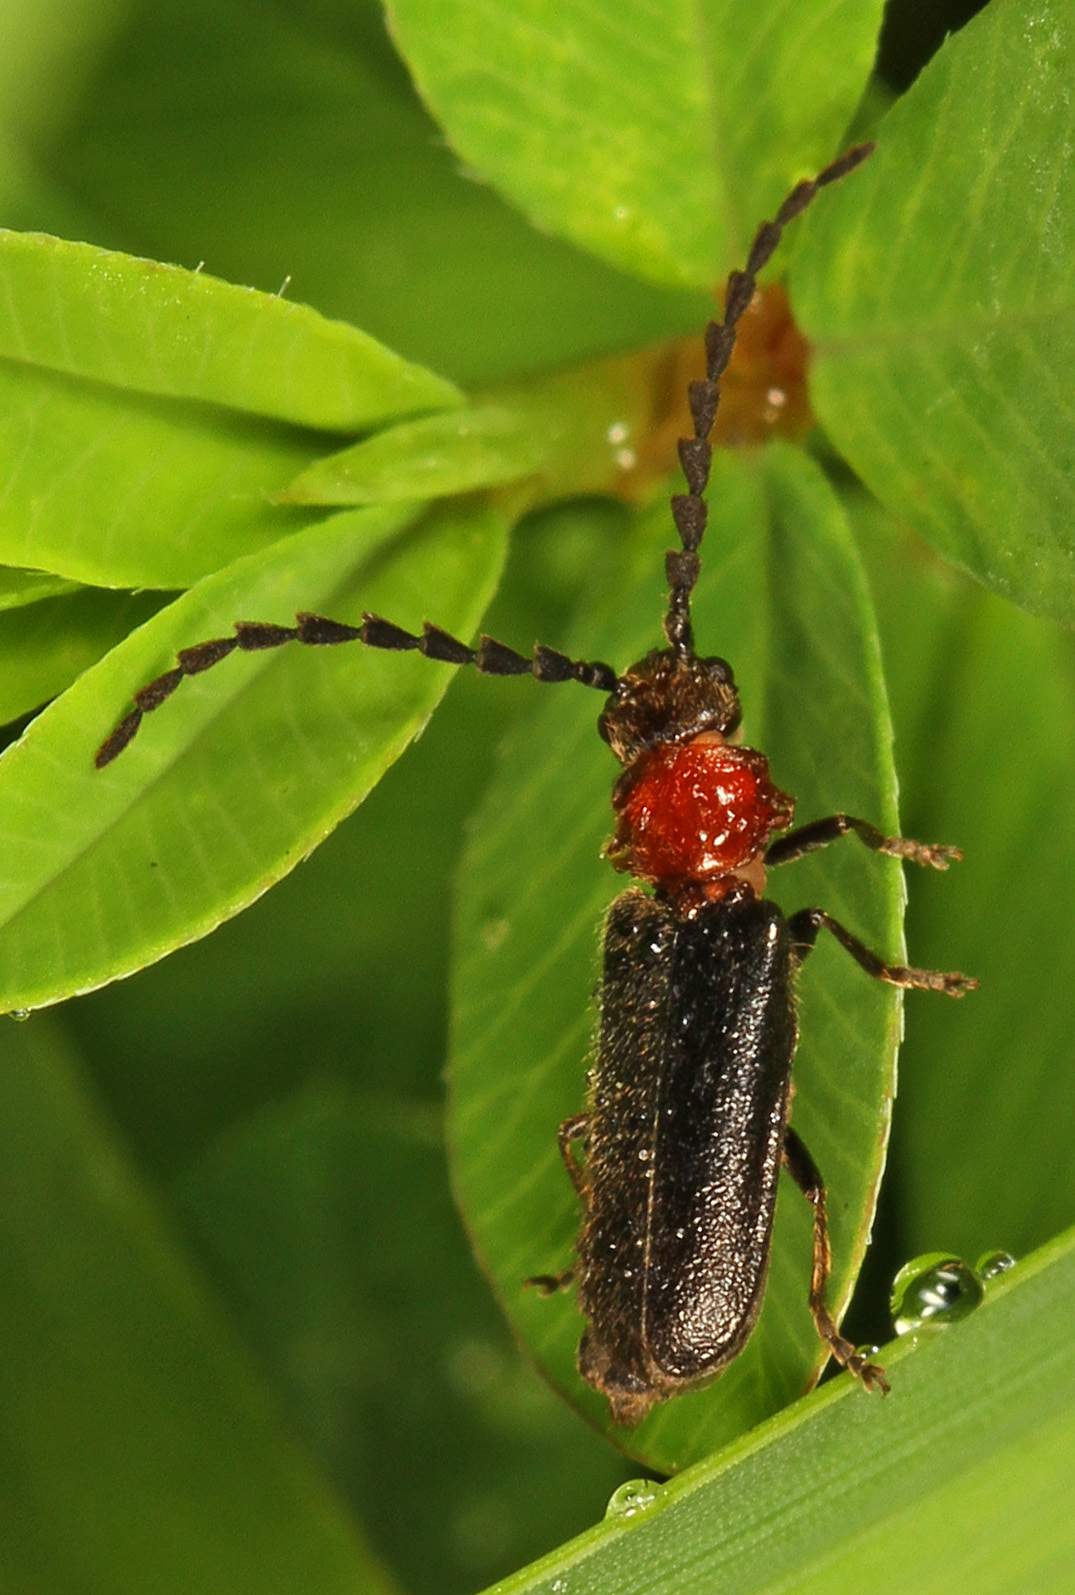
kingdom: Animalia
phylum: Arthropoda
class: Insecta
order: Coleoptera
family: Cantharidae
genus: Ditemnus
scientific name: Ditemnus bidentatus
